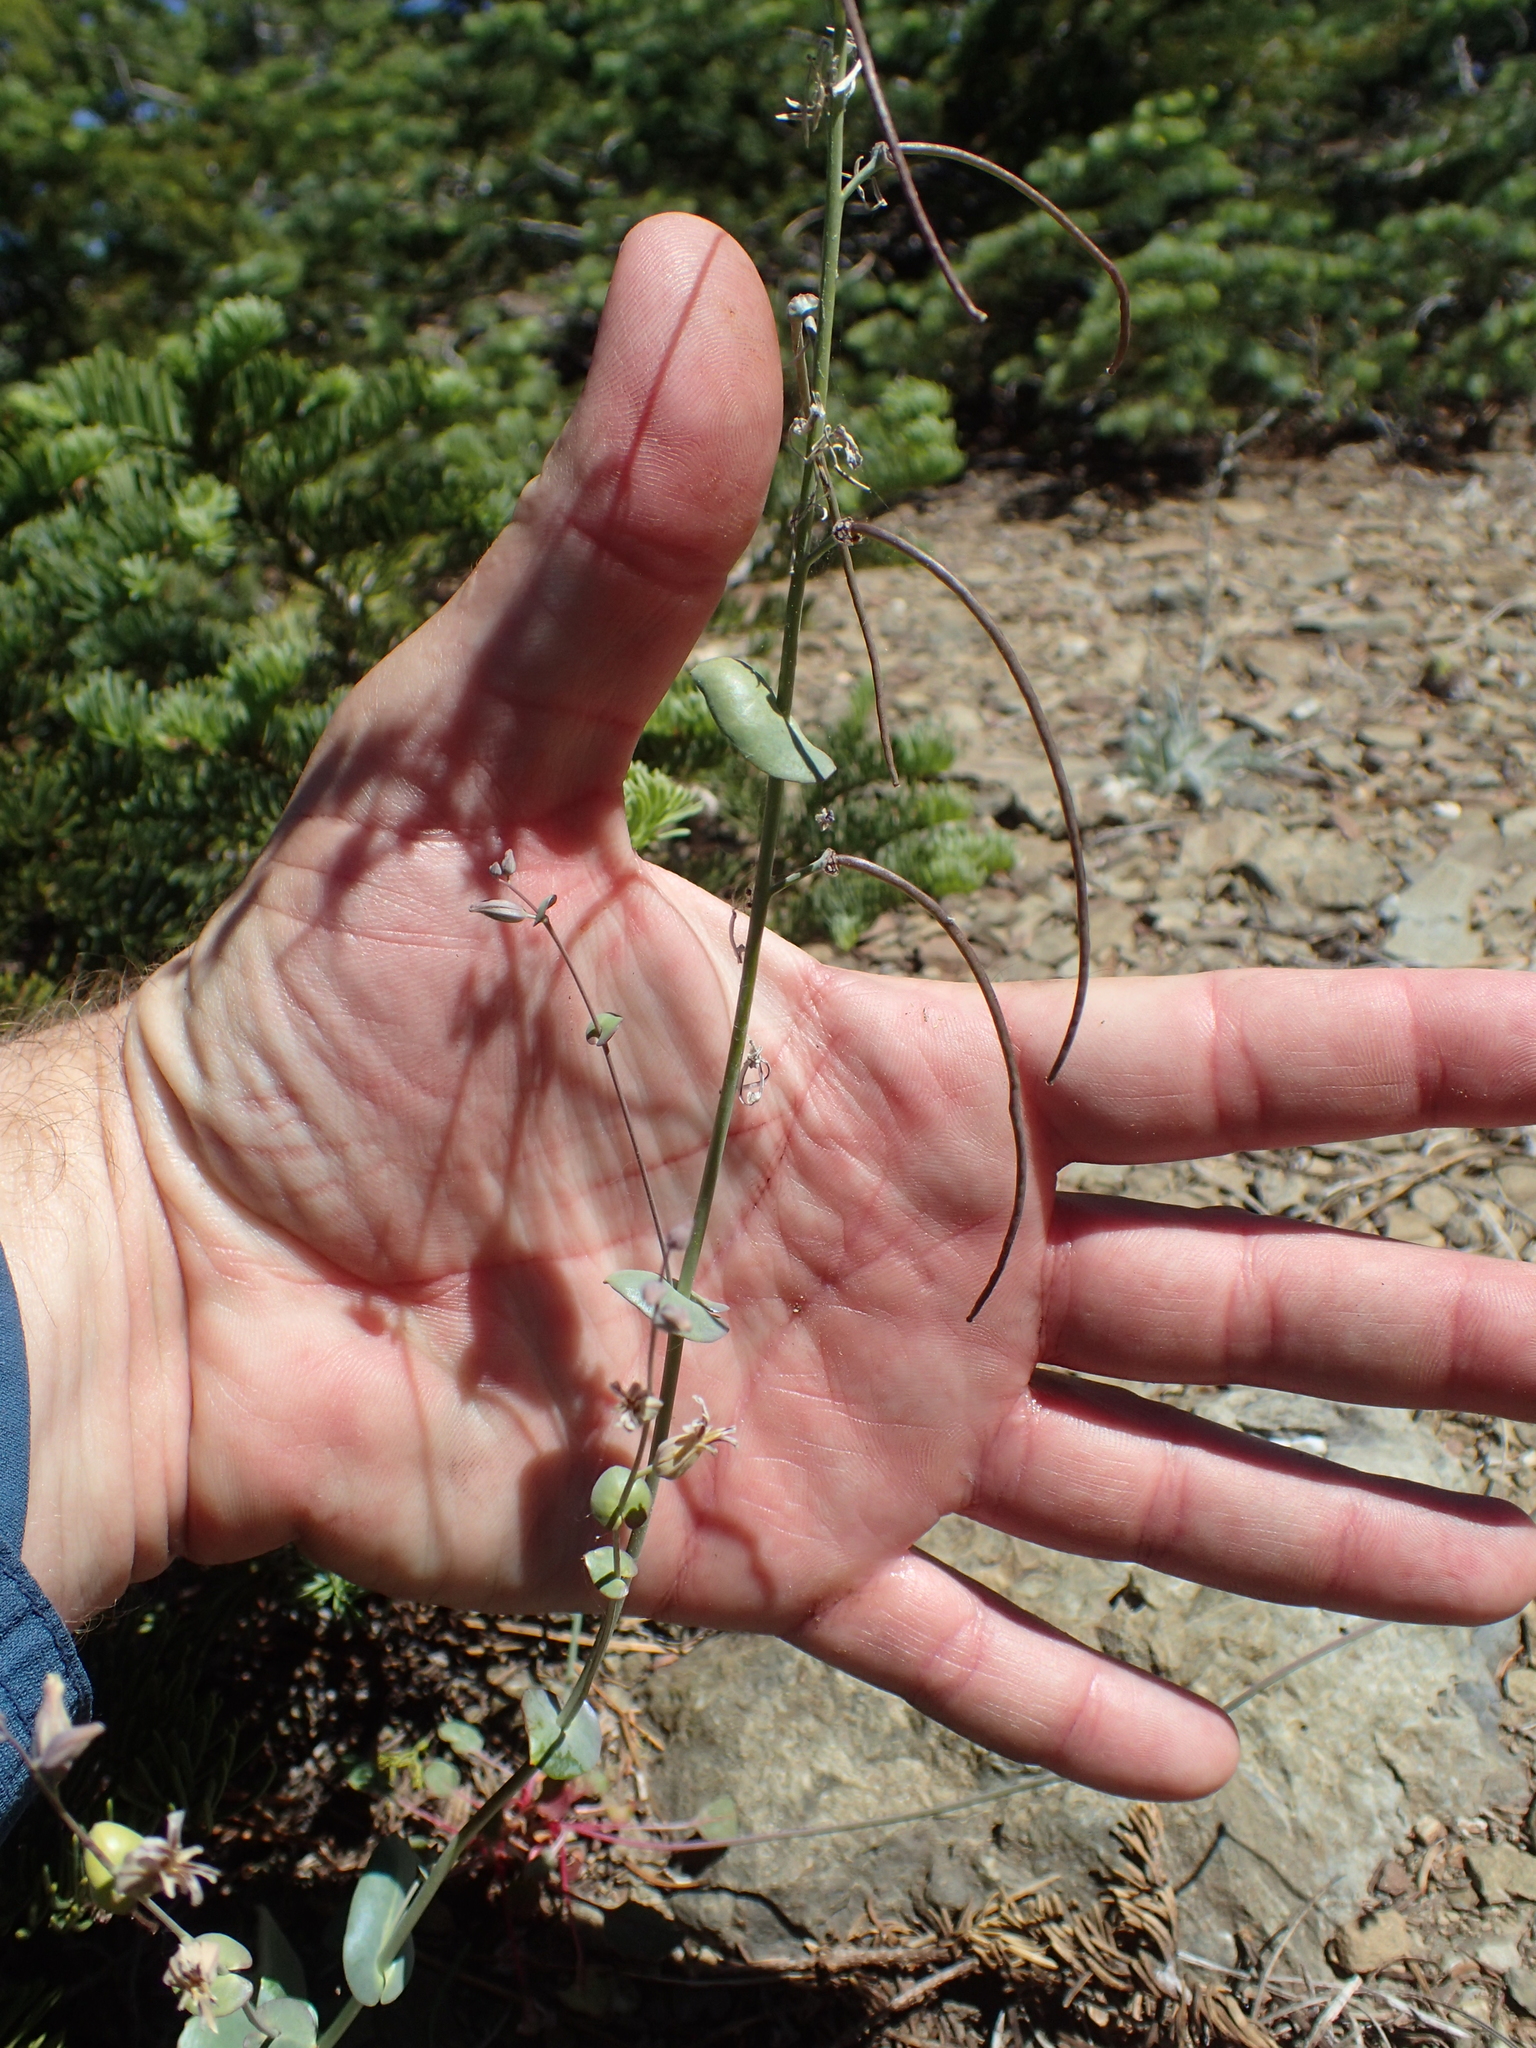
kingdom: Plantae
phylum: Tracheophyta
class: Magnoliopsida
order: Brassicales
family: Brassicaceae
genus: Streptanthus
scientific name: Streptanthus tortuosus
